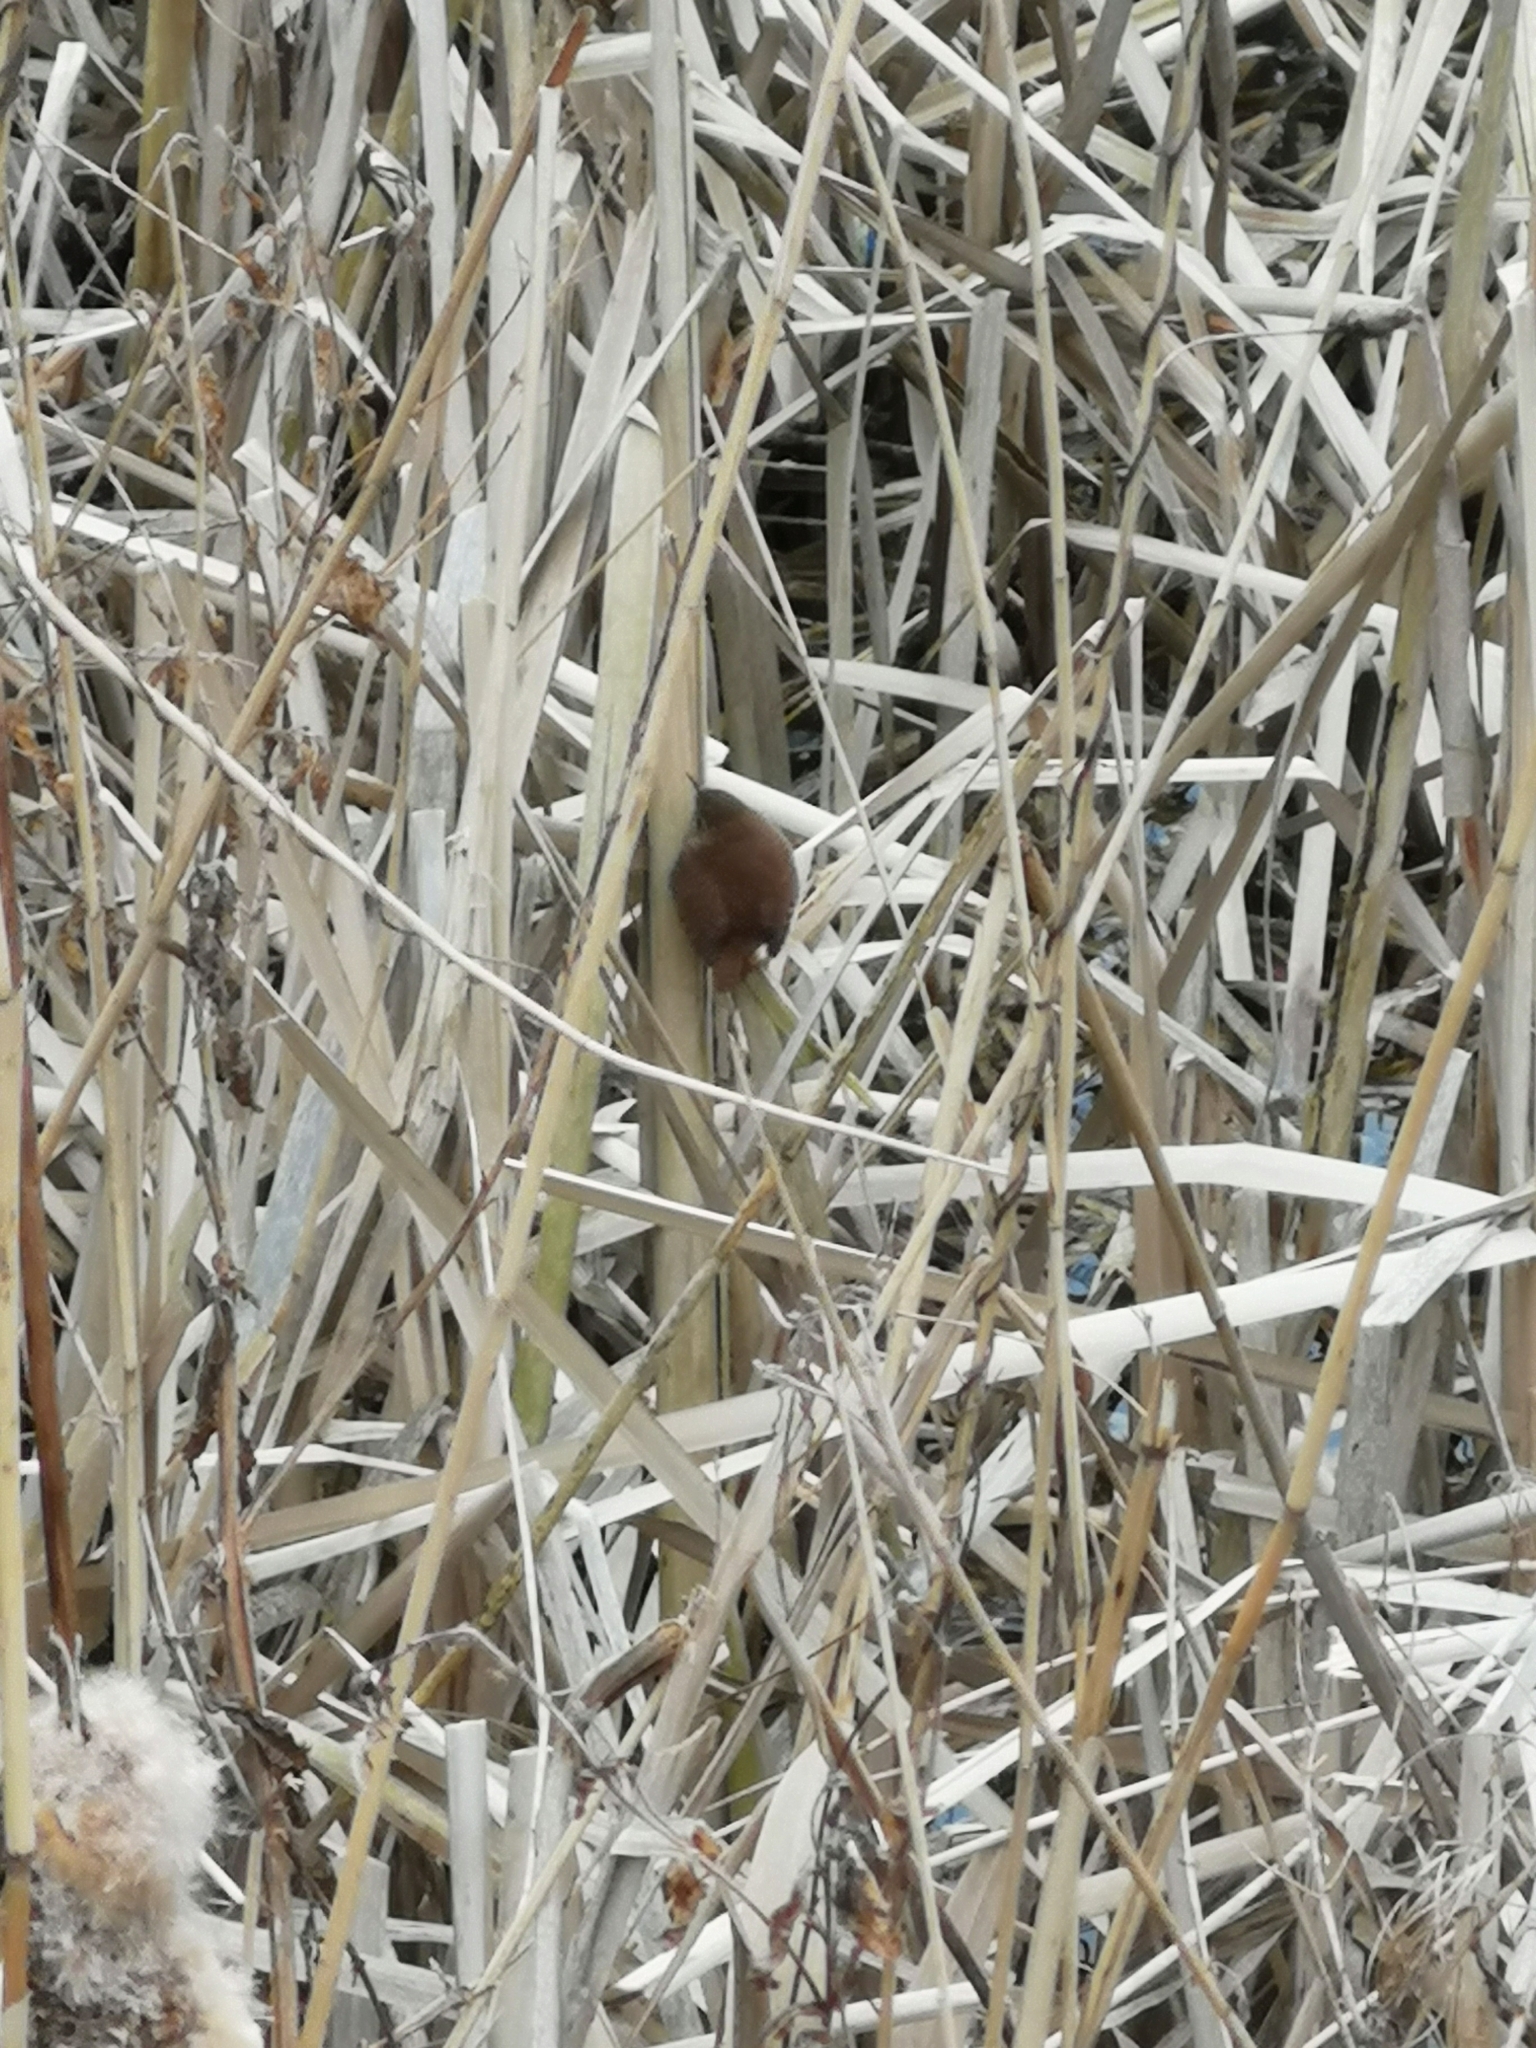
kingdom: Animalia
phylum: Chordata
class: Aves
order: Passeriformes
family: Troglodytidae
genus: Troglodytes
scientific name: Troglodytes troglodytes
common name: Eurasian wren
